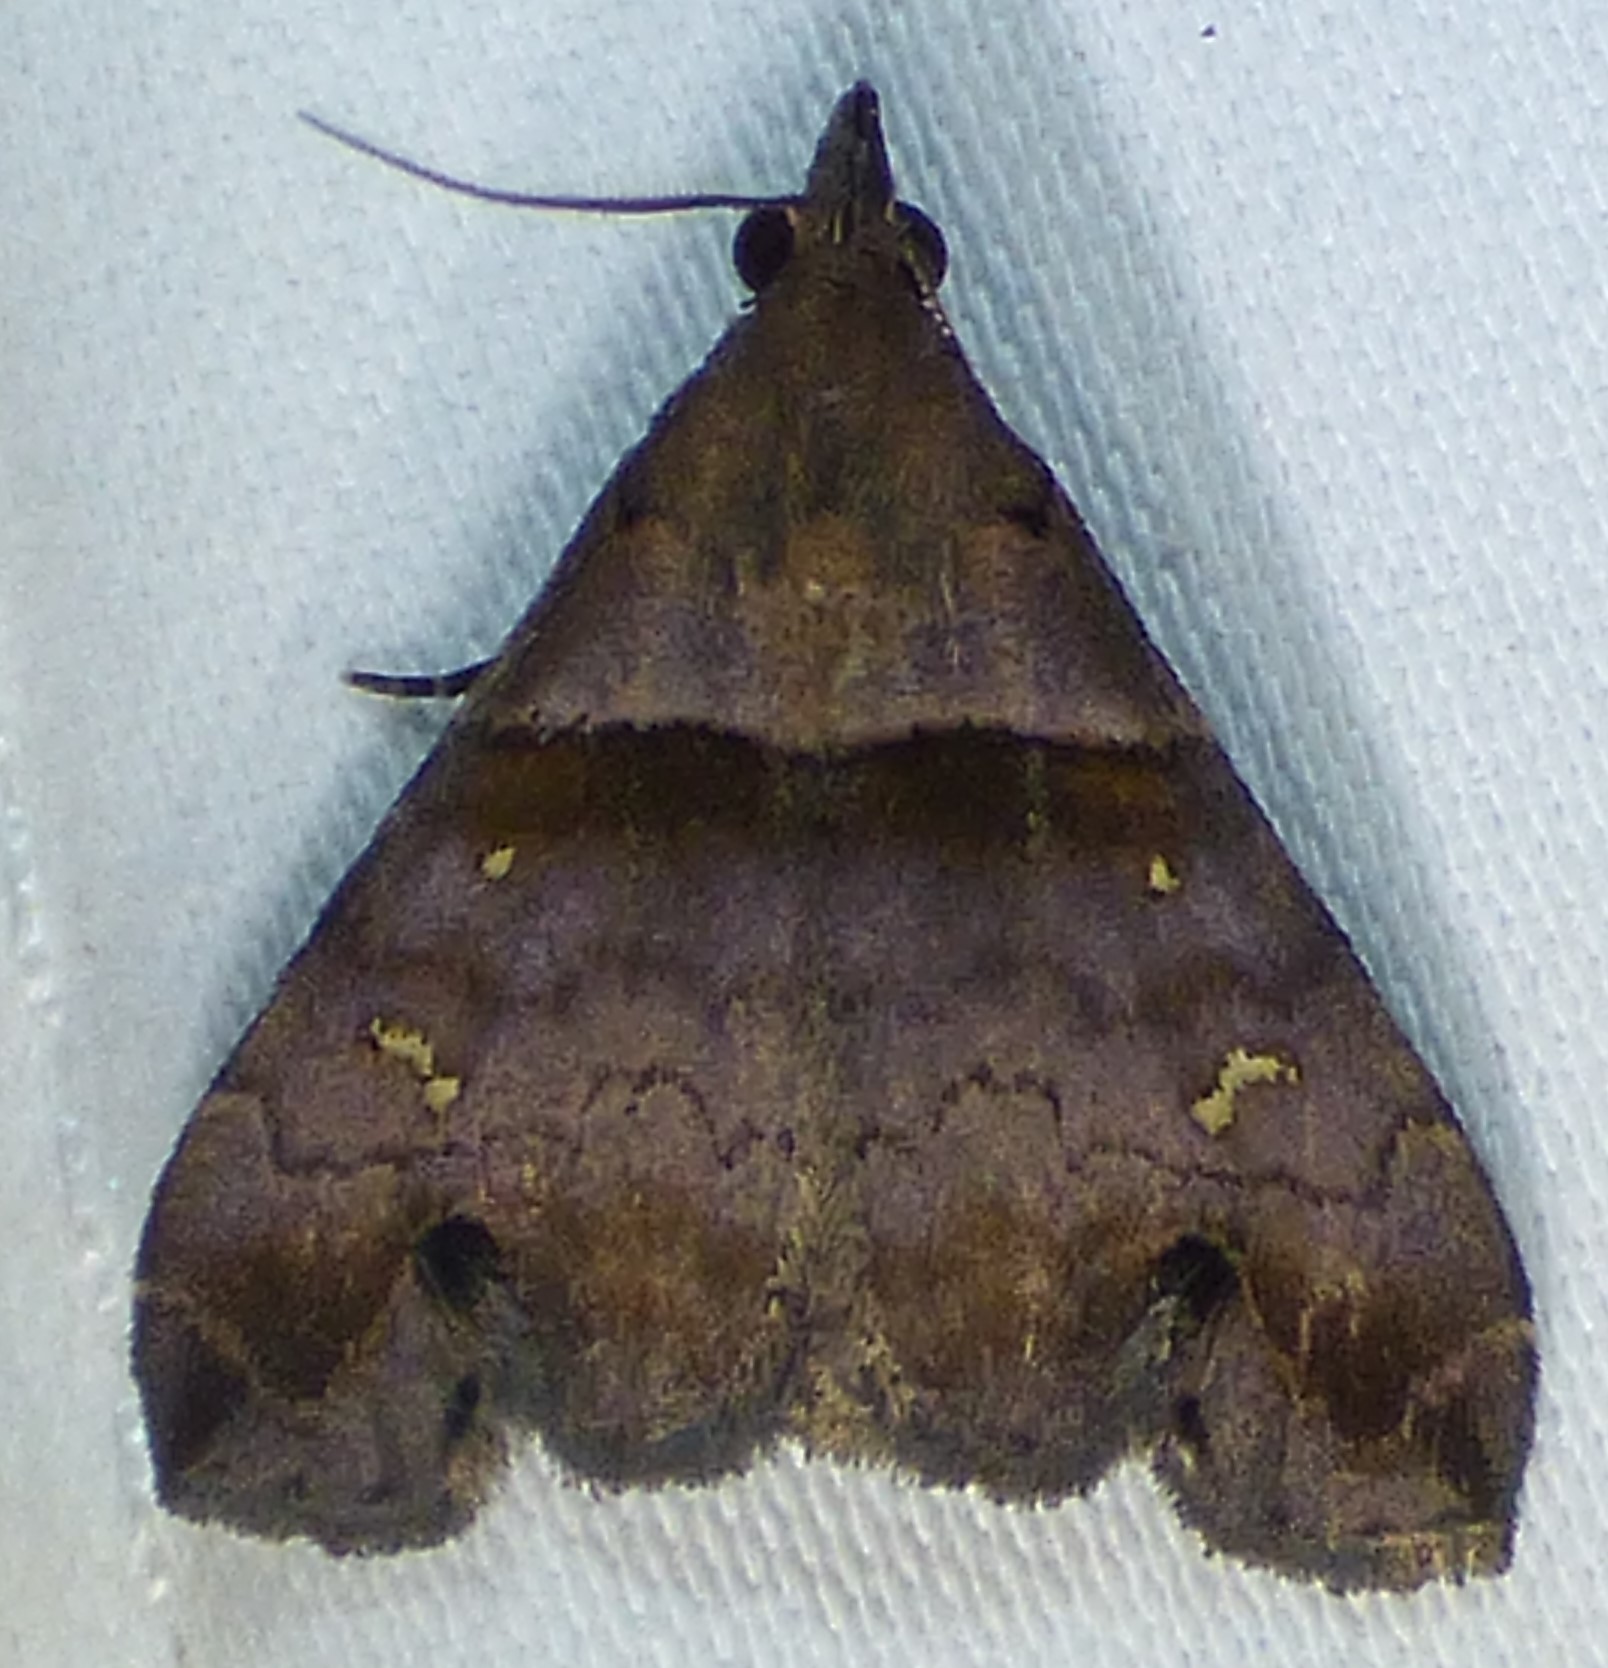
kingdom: Animalia
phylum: Arthropoda
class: Insecta
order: Lepidoptera
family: Erebidae
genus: Lascoria
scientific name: Lascoria ambigualis
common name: Ambiguous moth
